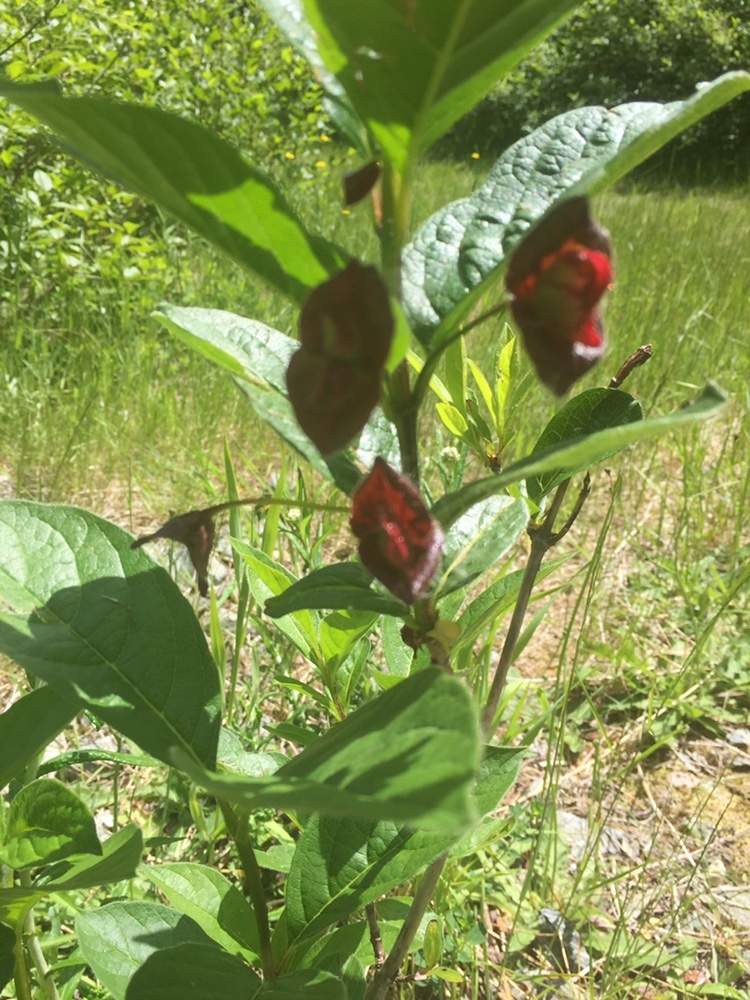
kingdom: Plantae
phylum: Tracheophyta
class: Magnoliopsida
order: Dipsacales
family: Caprifoliaceae
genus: Lonicera
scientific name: Lonicera involucrata
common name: Californian honeysuckle
